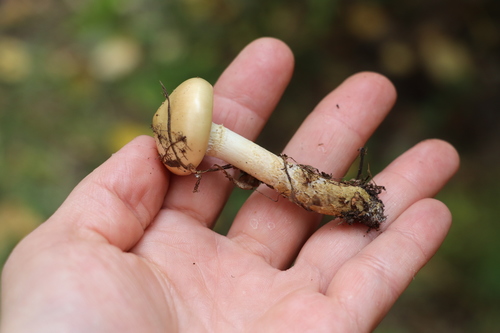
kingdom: Fungi
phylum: Basidiomycota
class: Agaricomycetes
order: Agaricales
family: Cortinariaceae
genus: Cortinarius
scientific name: Cortinarius trivialis
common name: Girdled webcap
